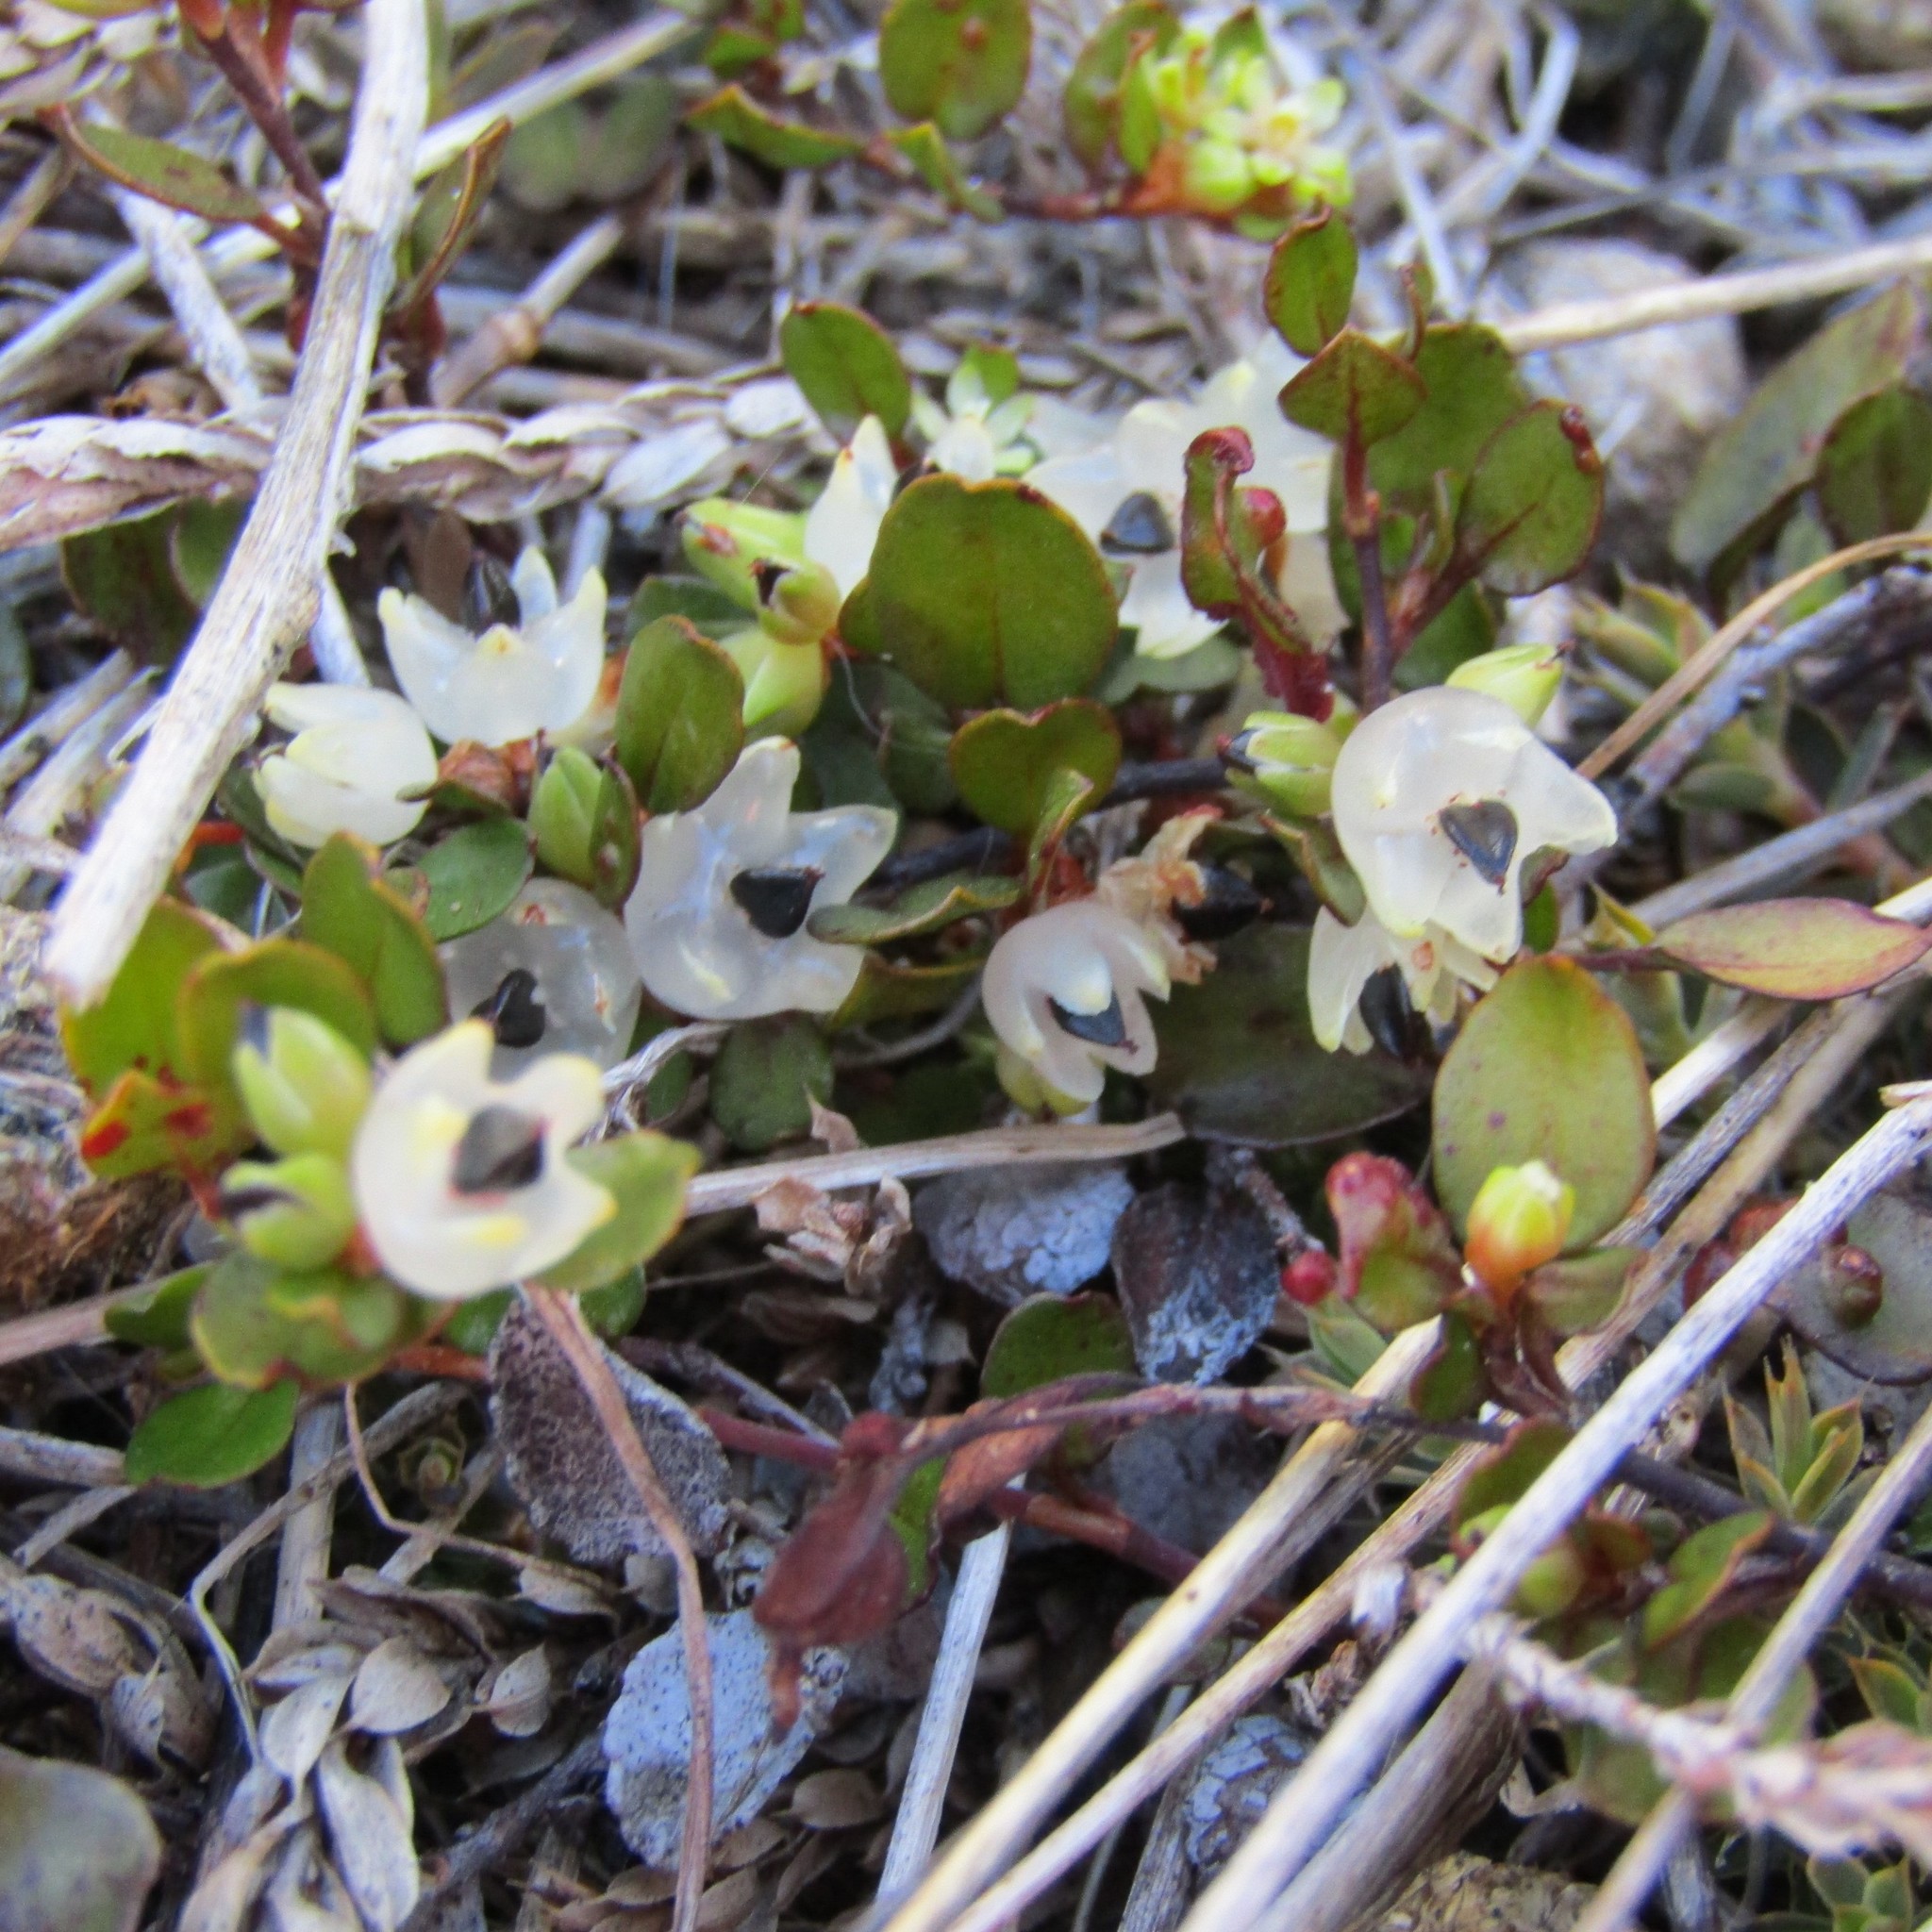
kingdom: Plantae
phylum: Tracheophyta
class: Magnoliopsida
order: Caryophyllales
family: Polygonaceae
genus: Muehlenbeckia
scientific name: Muehlenbeckia axillaris
